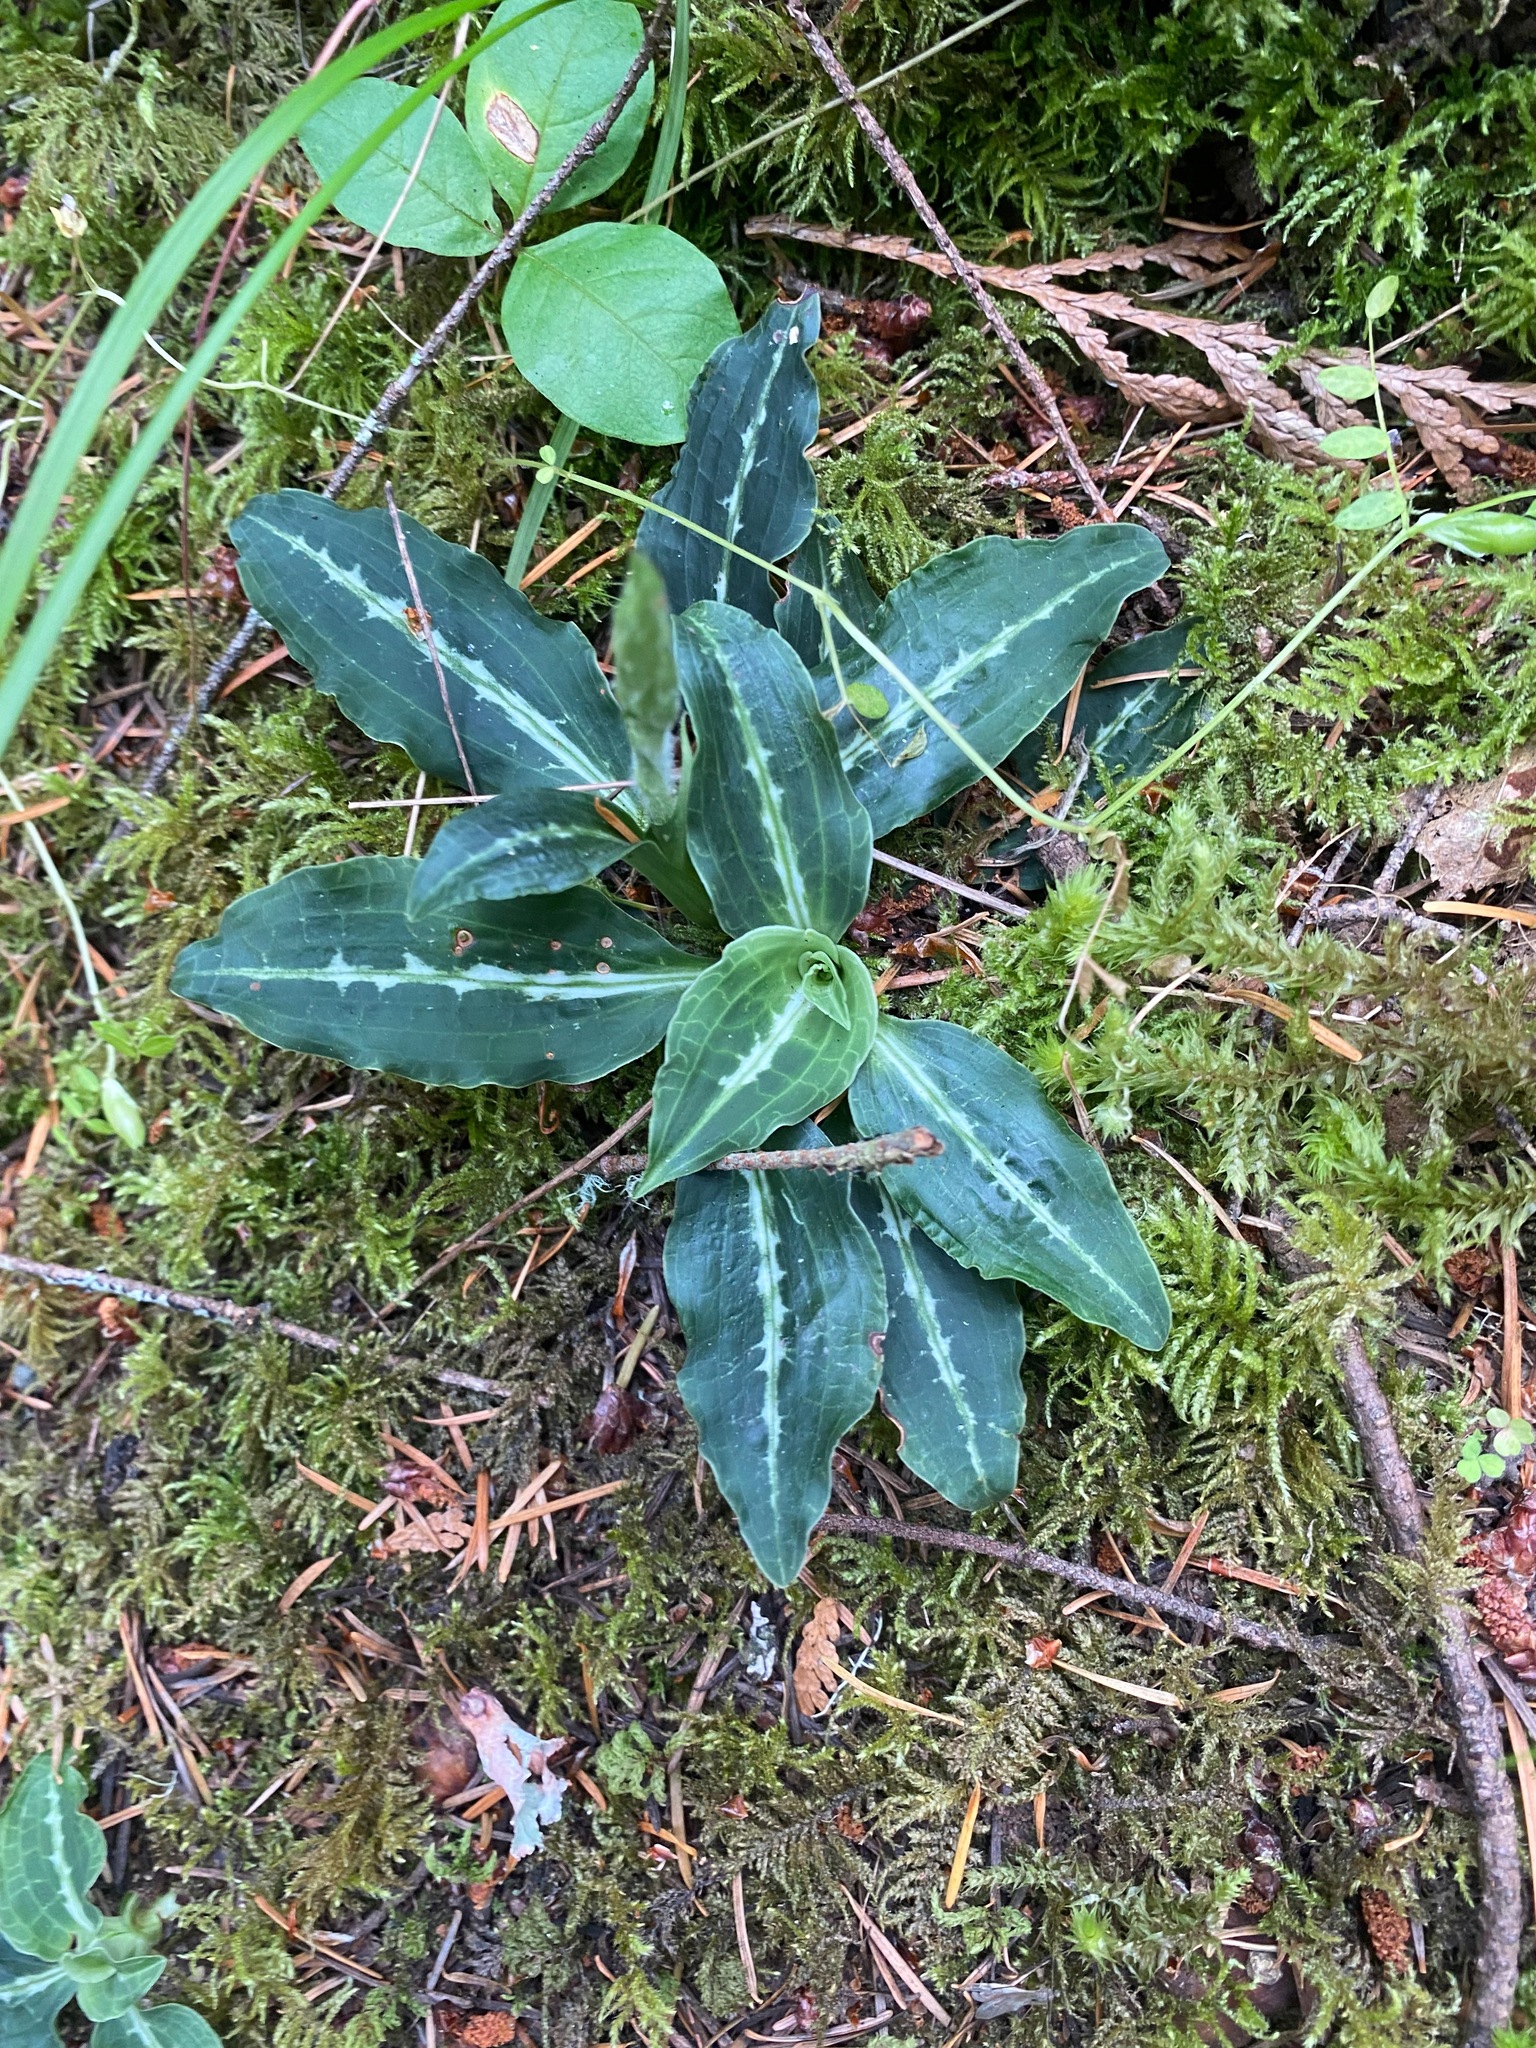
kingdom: Plantae
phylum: Tracheophyta
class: Liliopsida
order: Asparagales
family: Orchidaceae
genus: Goodyera
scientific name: Goodyera oblongifolia
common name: Giant rattlesnake-plantain
